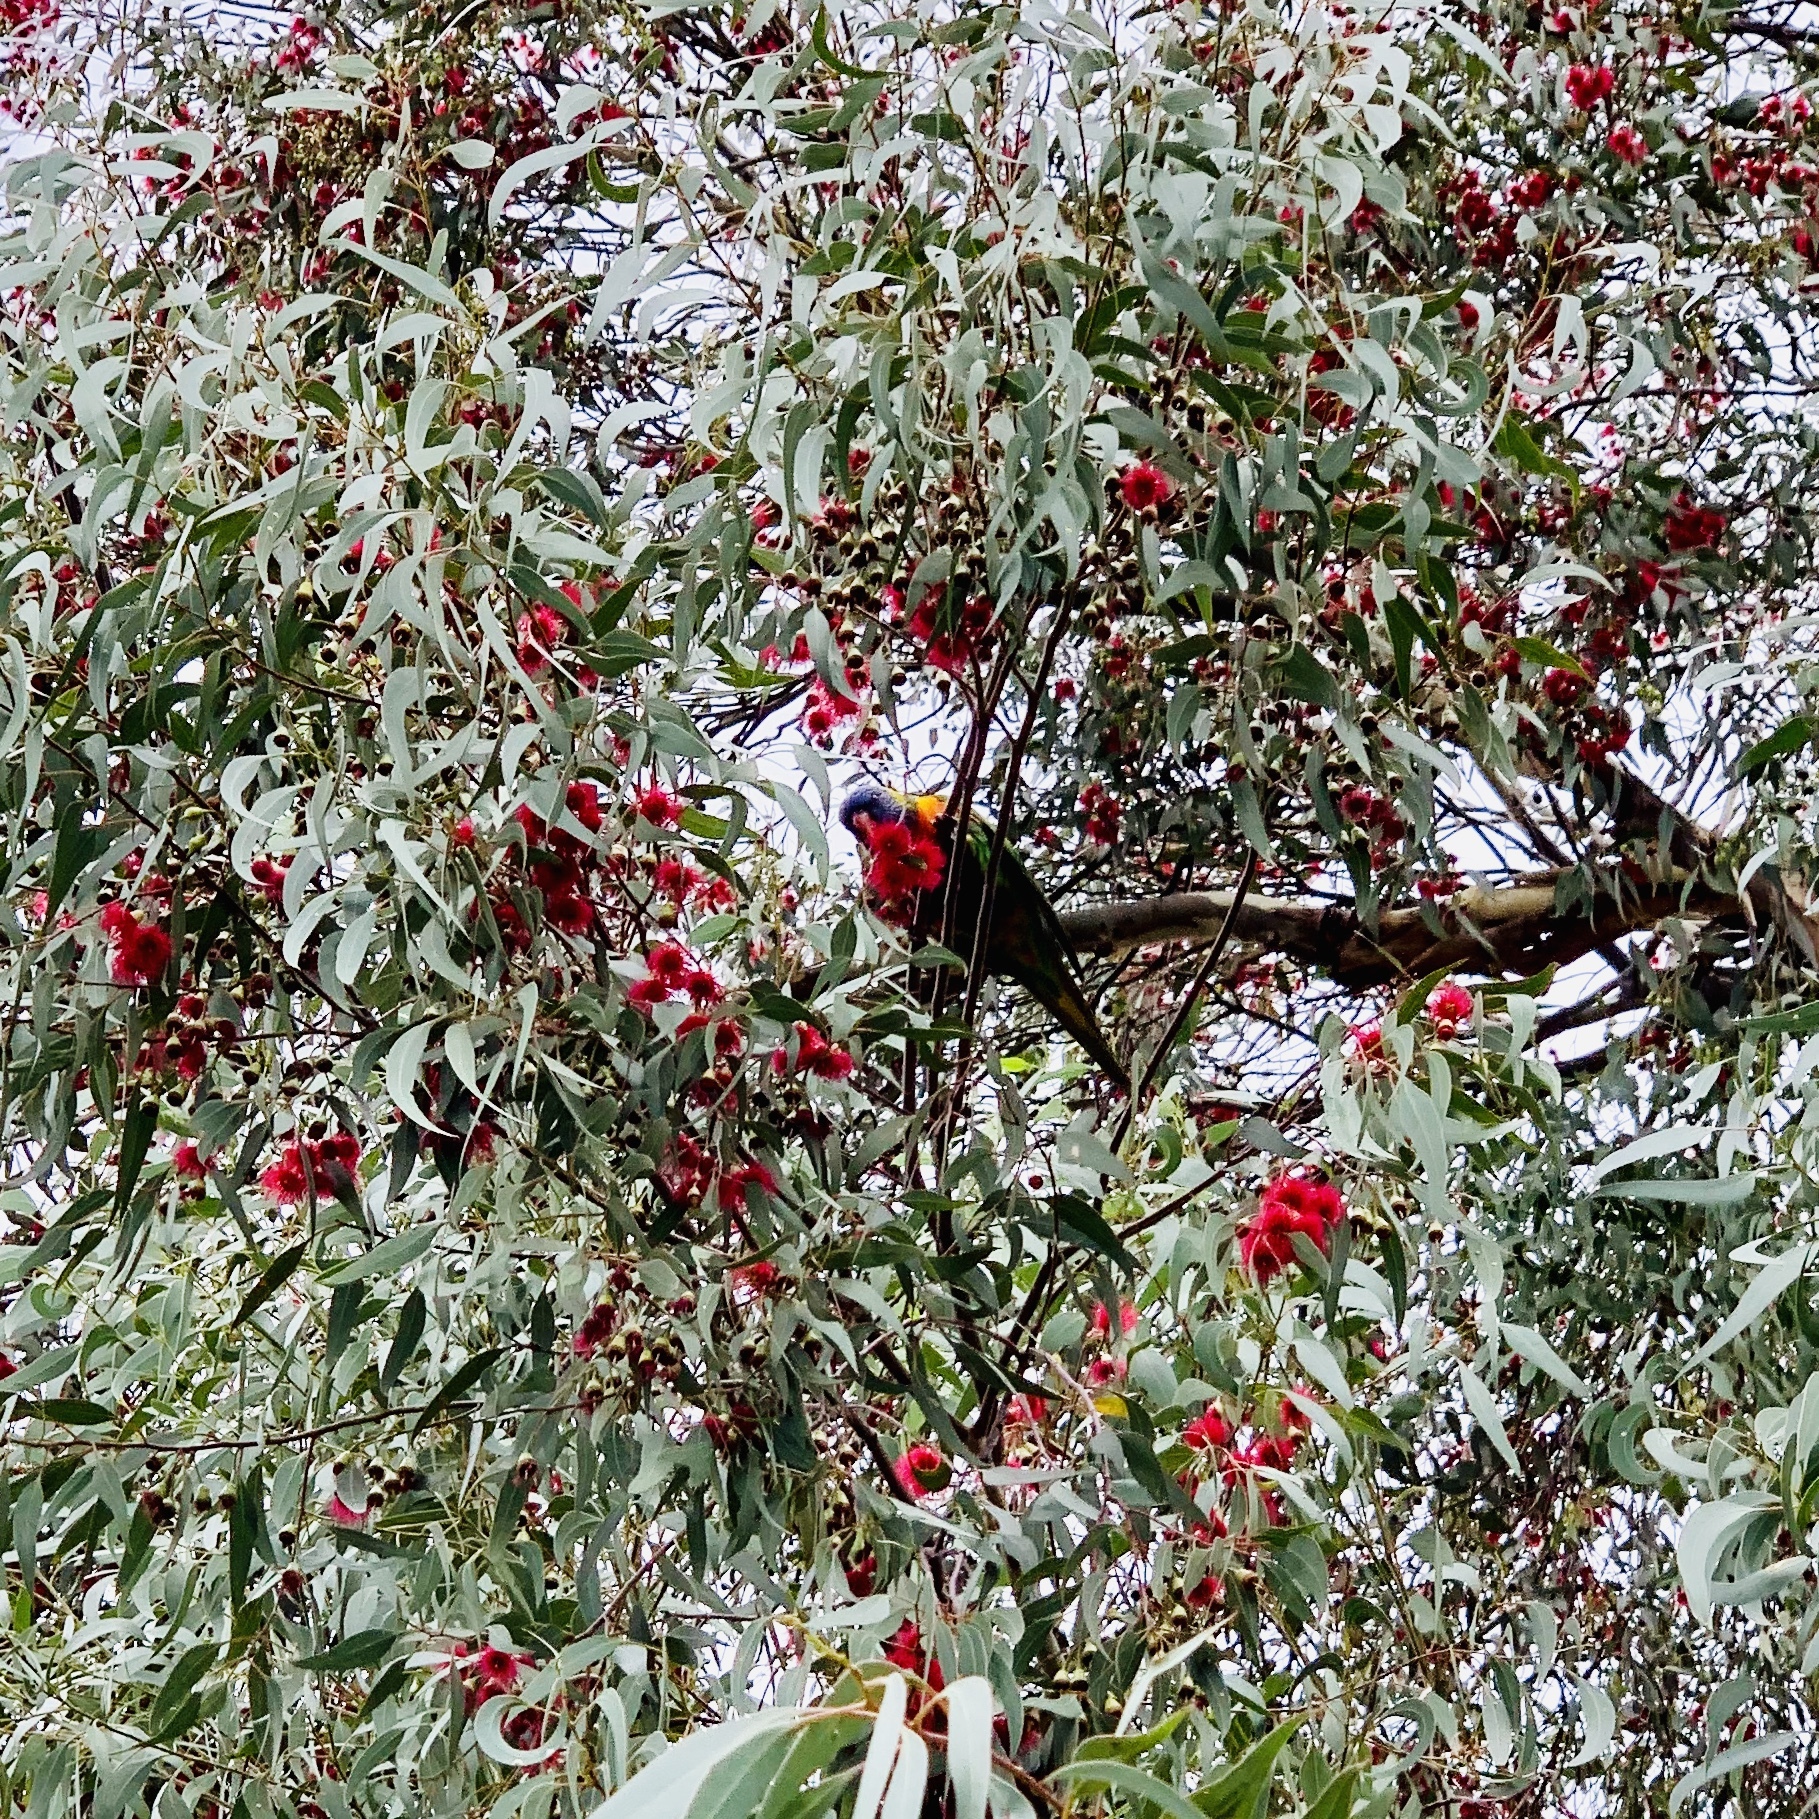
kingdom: Animalia
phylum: Chordata
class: Aves
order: Psittaciformes
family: Psittacidae
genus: Trichoglossus
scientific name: Trichoglossus haematodus
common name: Coconut lorikeet
